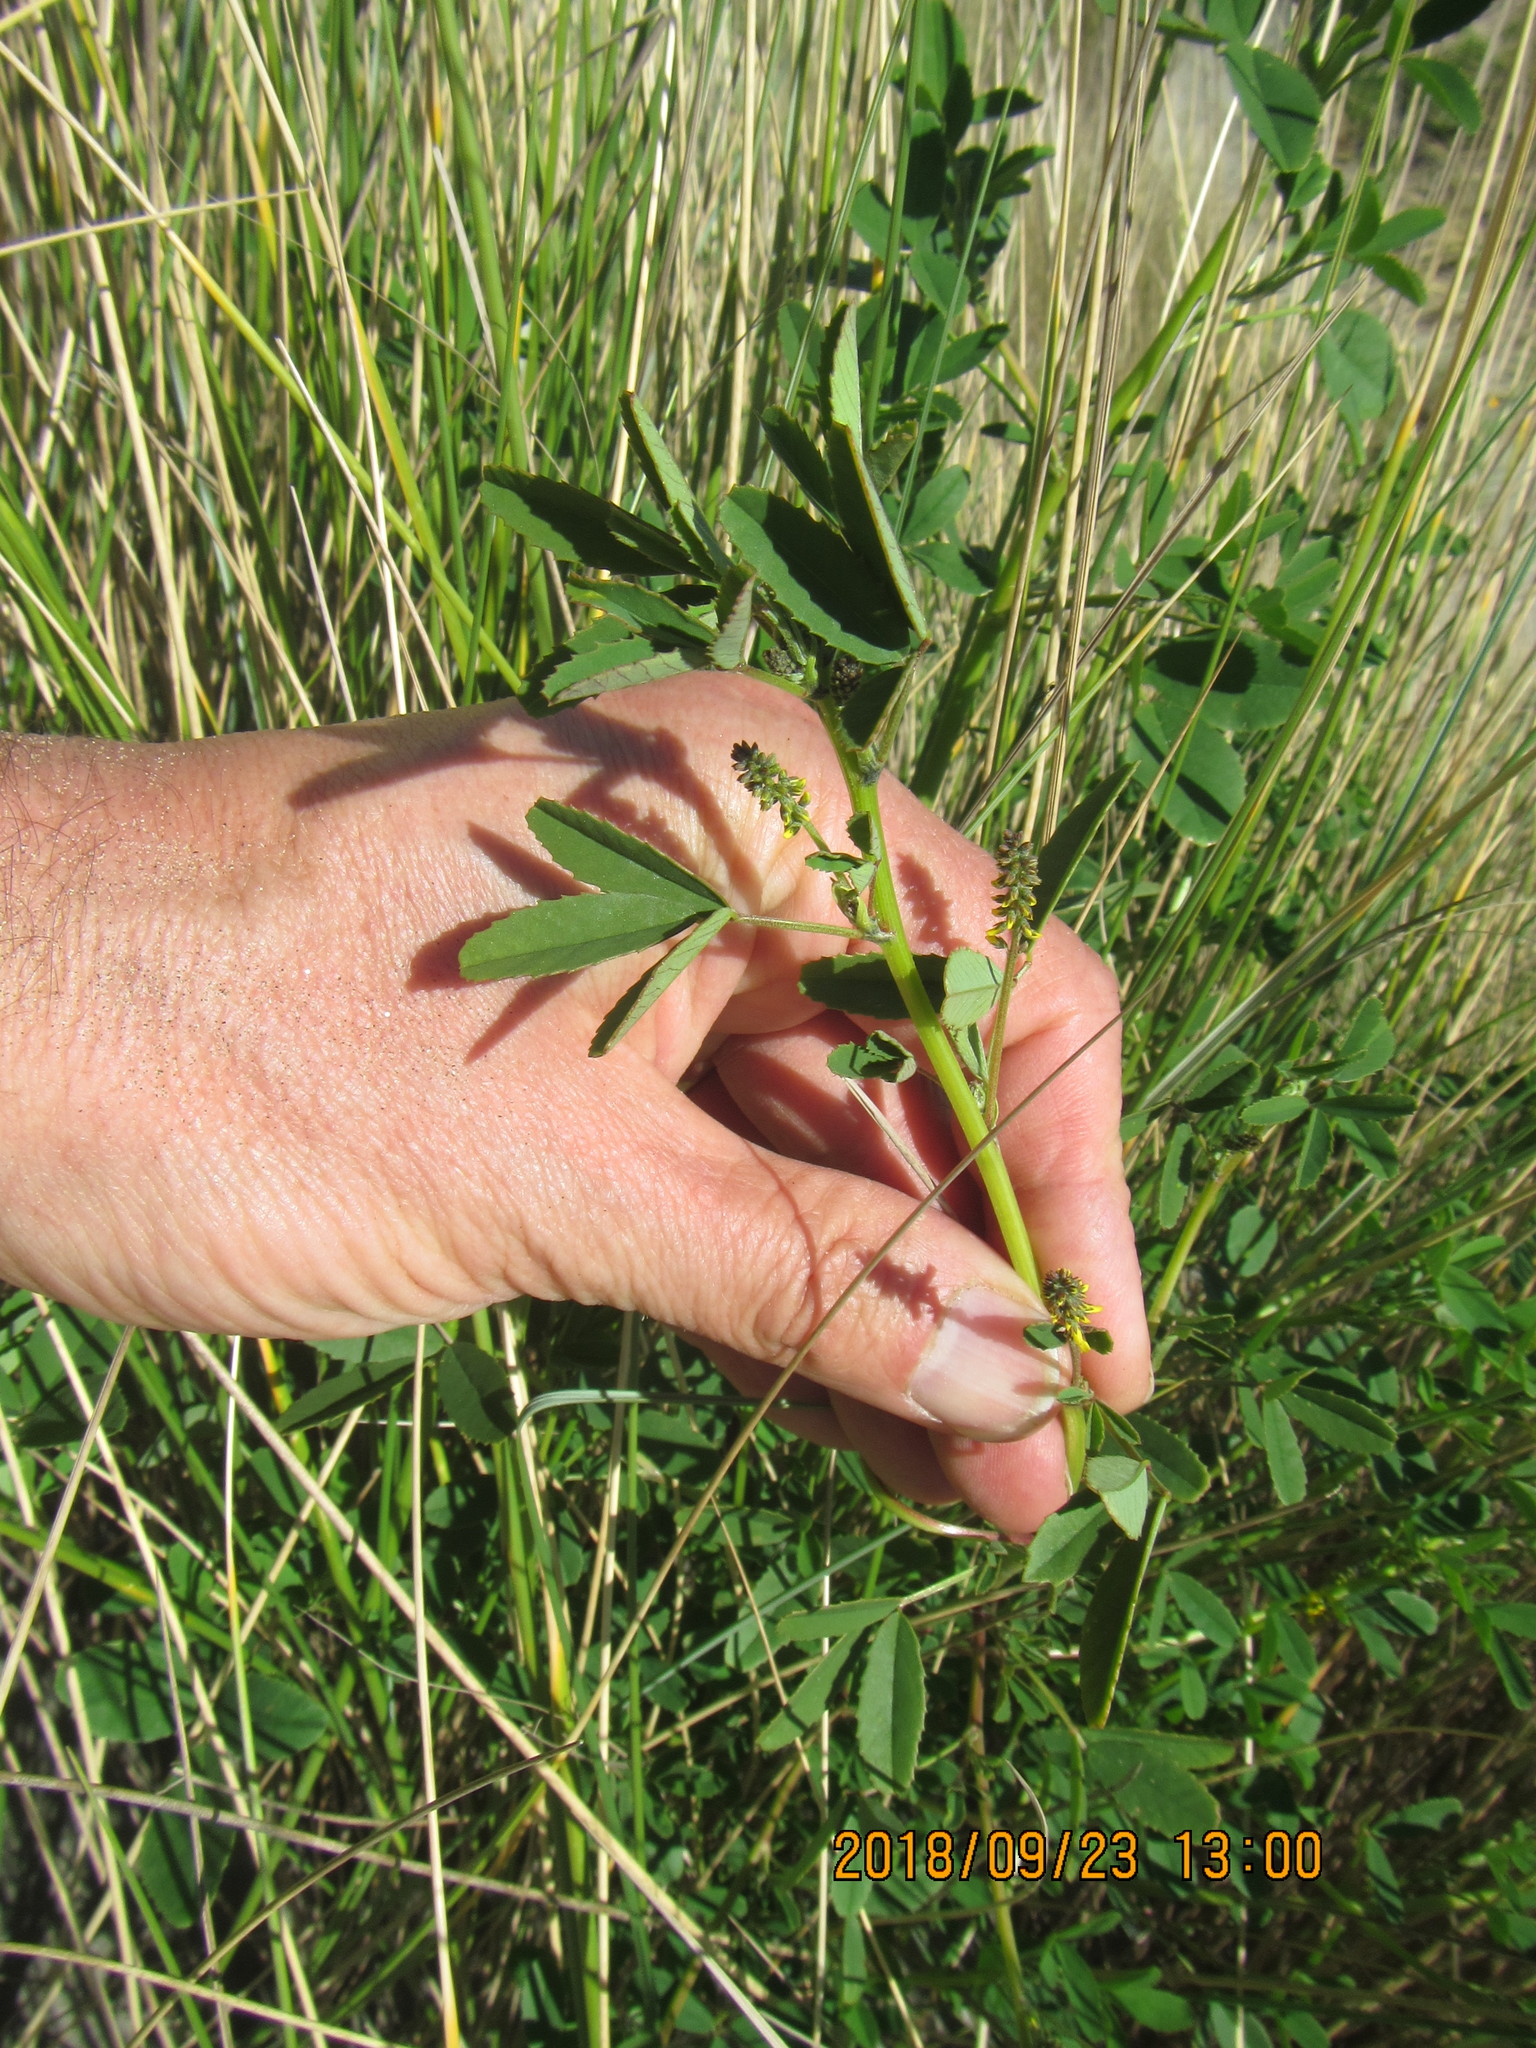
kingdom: Plantae
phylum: Tracheophyta
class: Magnoliopsida
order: Fabales
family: Fabaceae
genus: Melilotus
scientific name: Melilotus indicus
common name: Small melilot
